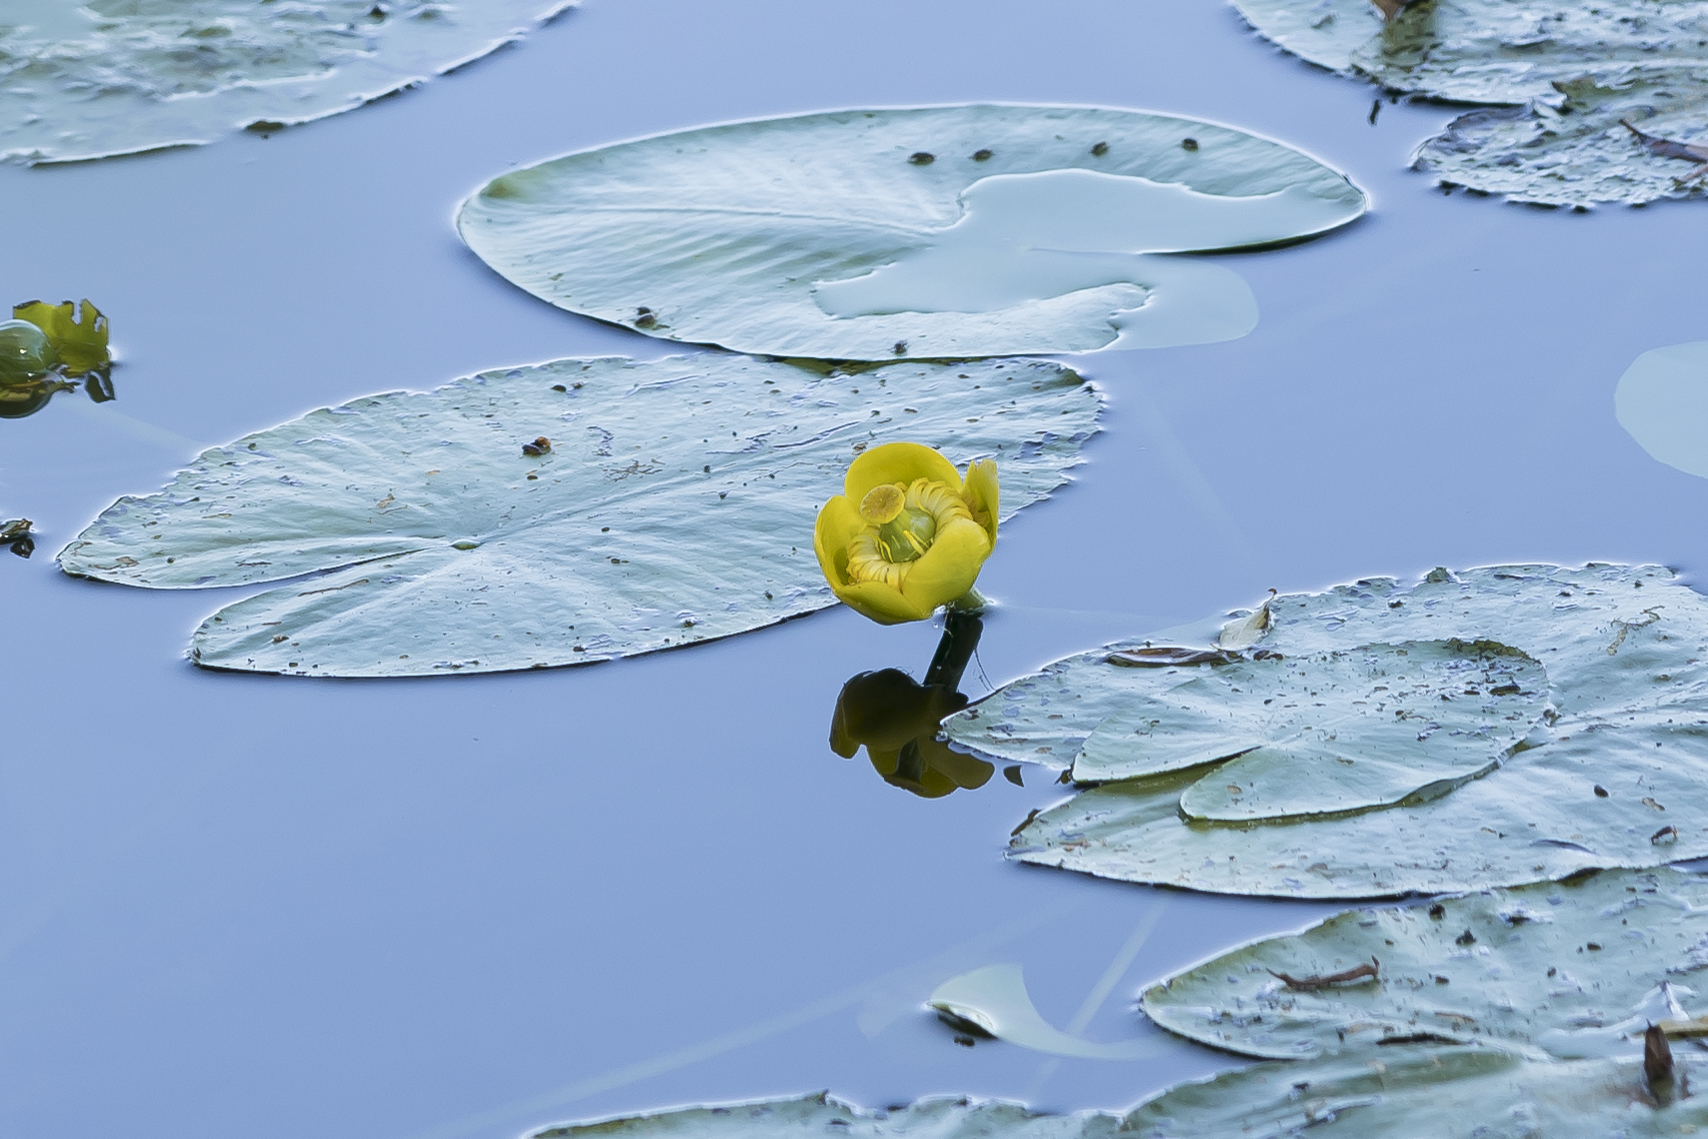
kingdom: Plantae
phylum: Tracheophyta
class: Magnoliopsida
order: Nymphaeales
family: Nymphaeaceae
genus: Nuphar
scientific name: Nuphar lutea
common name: Yellow water-lily
